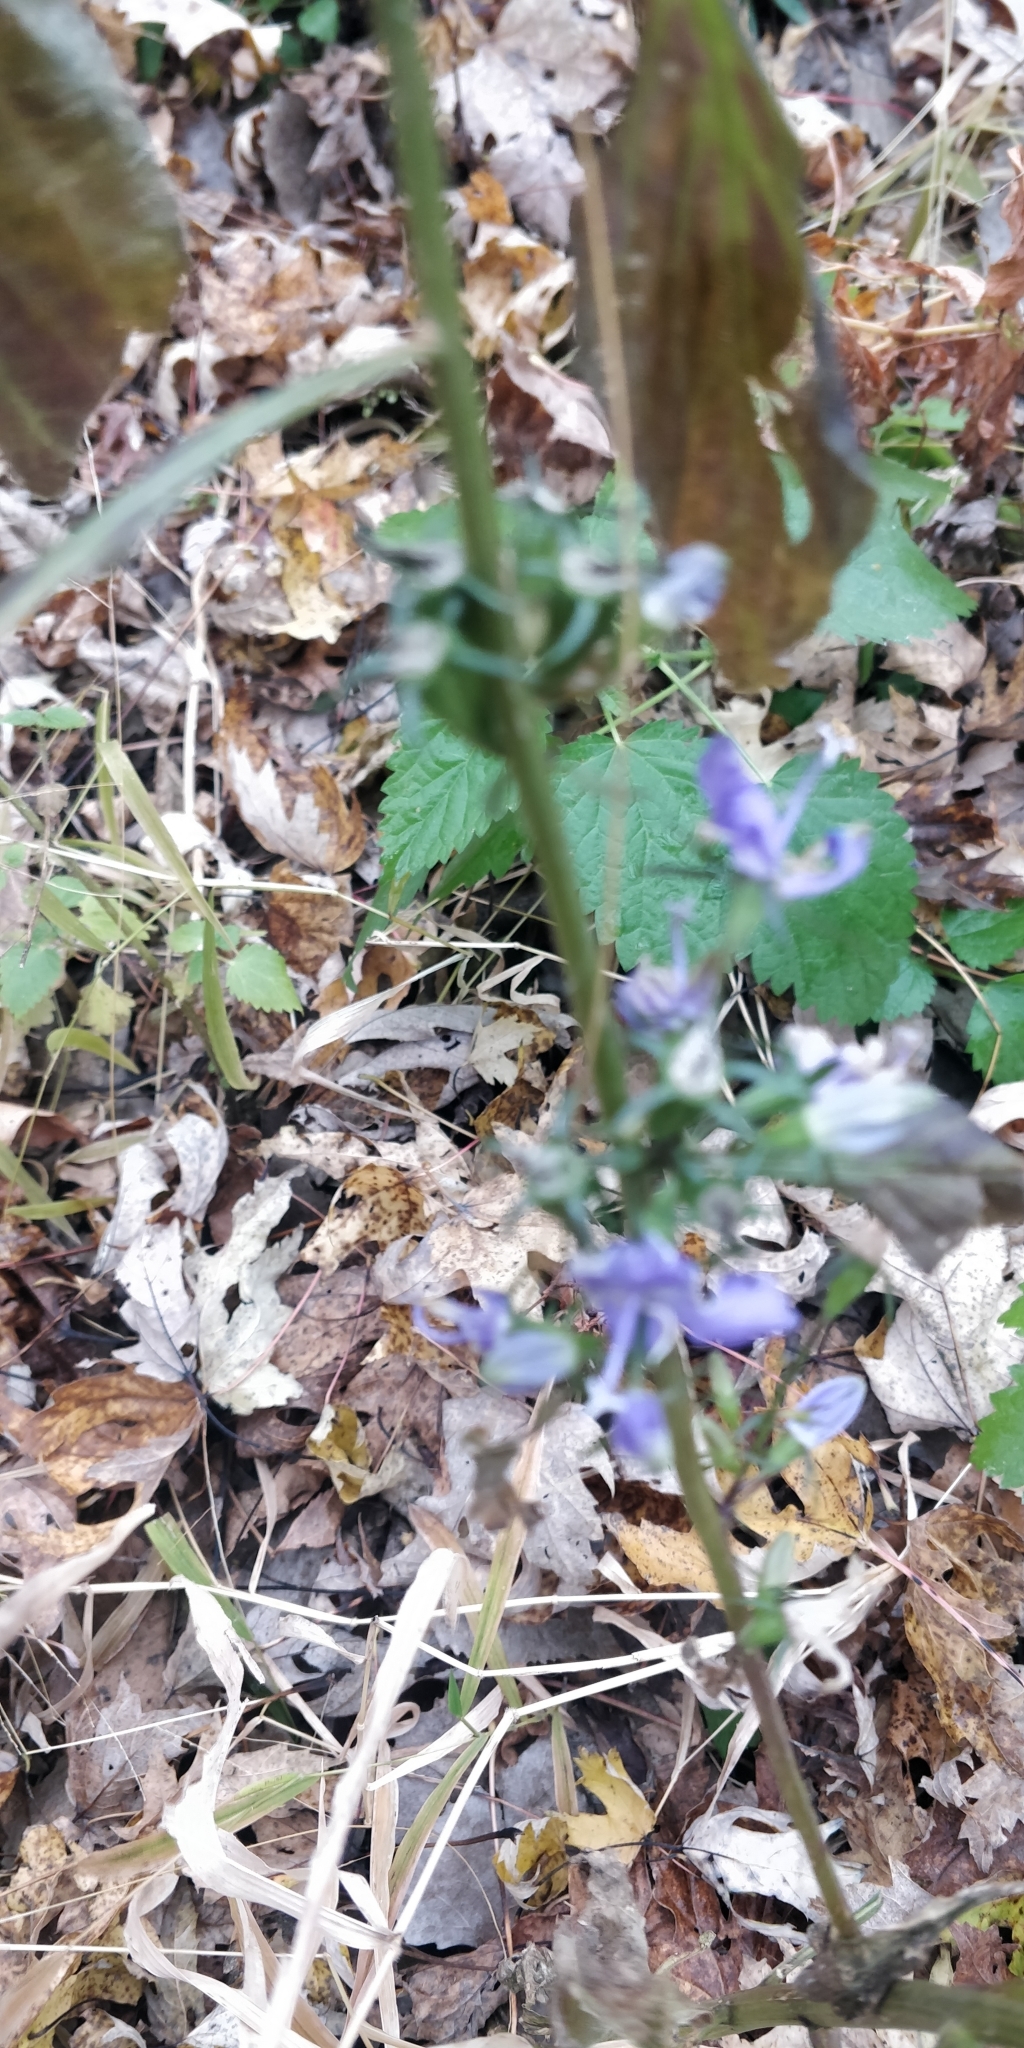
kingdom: Plantae
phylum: Tracheophyta
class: Magnoliopsida
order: Asterales
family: Campanulaceae
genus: Campanulastrum
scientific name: Campanulastrum americanum
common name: American bellflower
